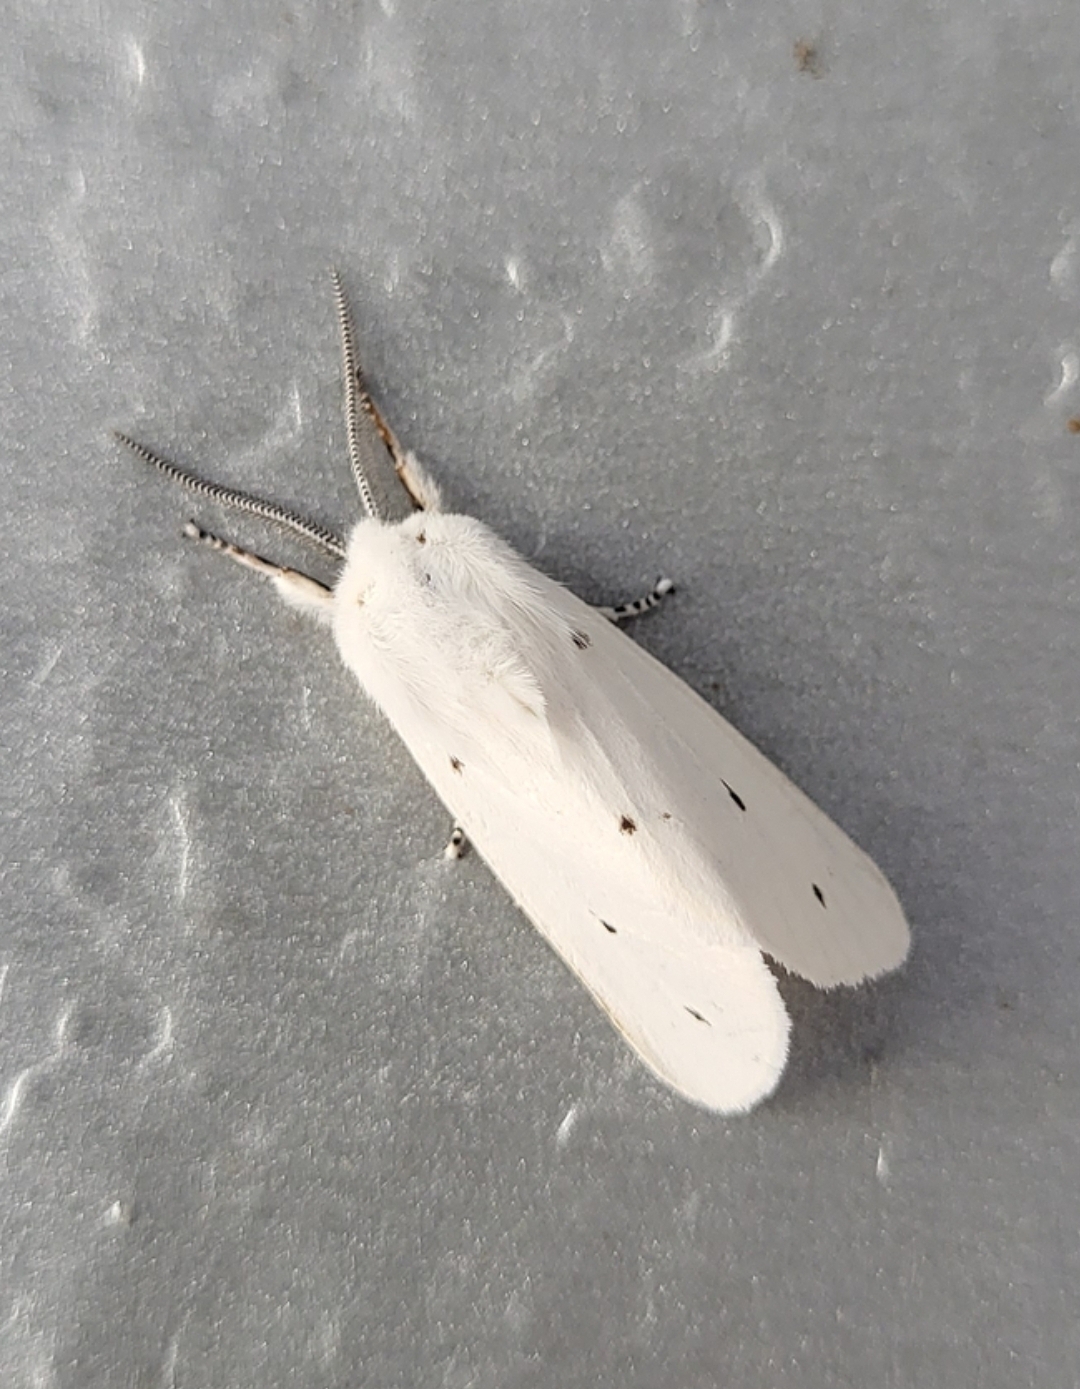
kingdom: Animalia
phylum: Arthropoda
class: Insecta
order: Lepidoptera
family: Erebidae
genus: Spilosoma
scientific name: Spilosoma virginica
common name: Virginia tiger moth
